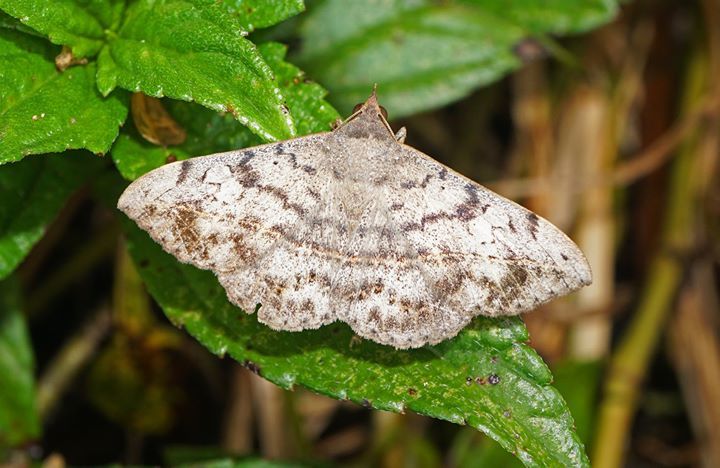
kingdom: Animalia
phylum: Arthropoda
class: Insecta
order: Lepidoptera
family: Erebidae
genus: Anticarsia
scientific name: Anticarsia gemmatalis
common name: Cutworm moth
